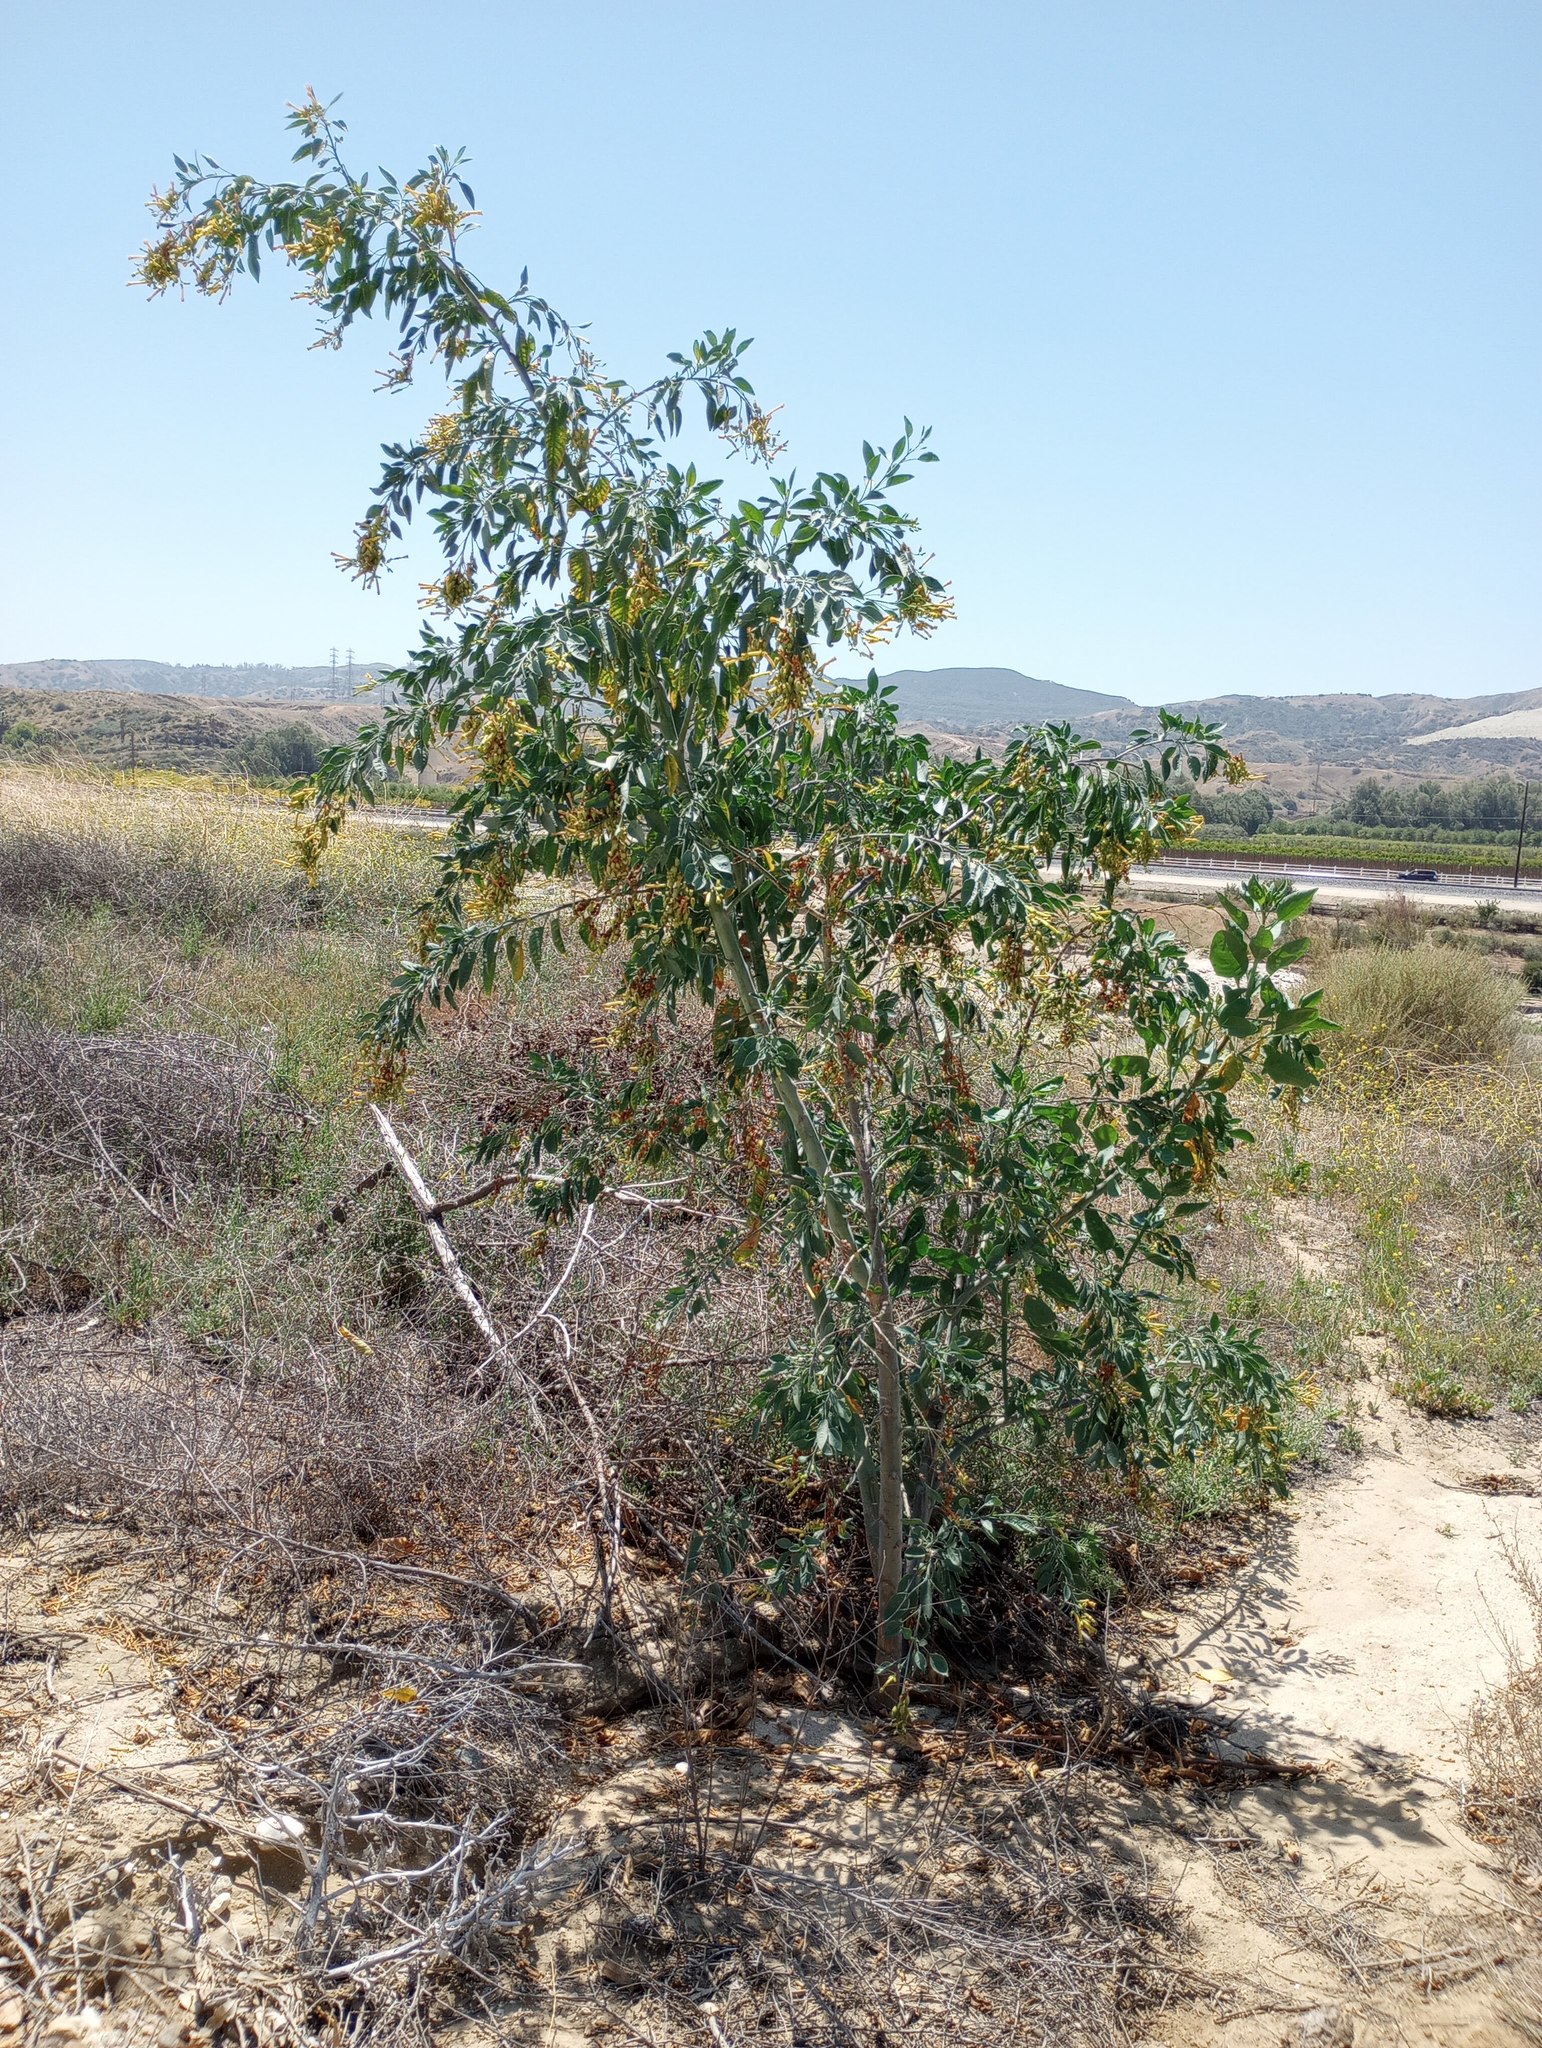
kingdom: Plantae
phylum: Tracheophyta
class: Magnoliopsida
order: Solanales
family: Solanaceae
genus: Nicotiana
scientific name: Nicotiana glauca
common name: Tree tobacco
